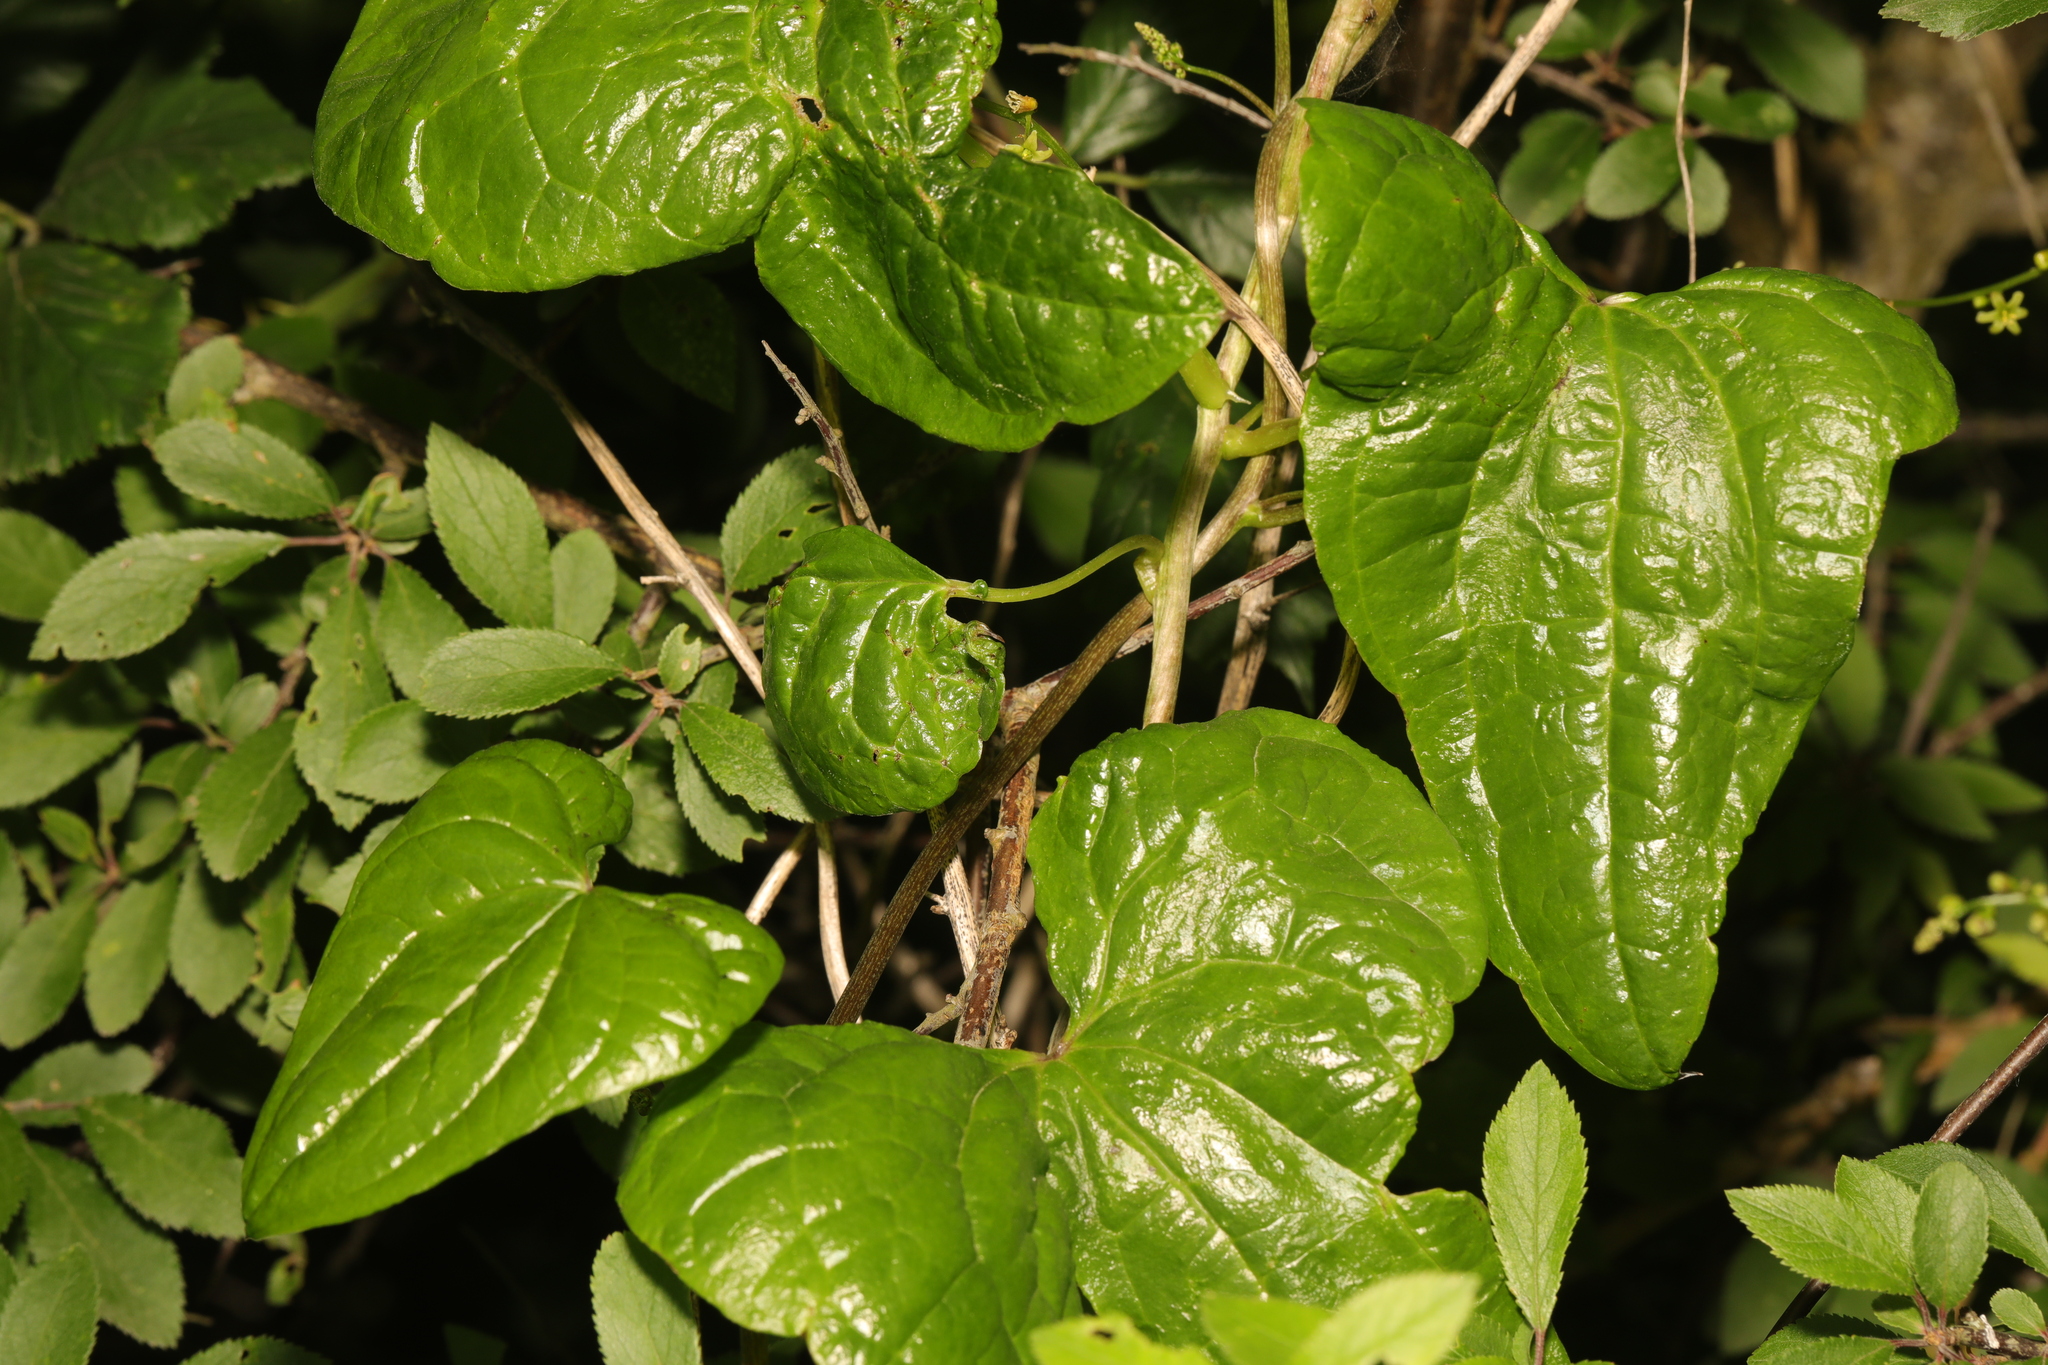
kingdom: Plantae
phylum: Tracheophyta
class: Liliopsida
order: Dioscoreales
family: Dioscoreaceae
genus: Dioscorea
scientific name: Dioscorea communis
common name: Black-bindweed
